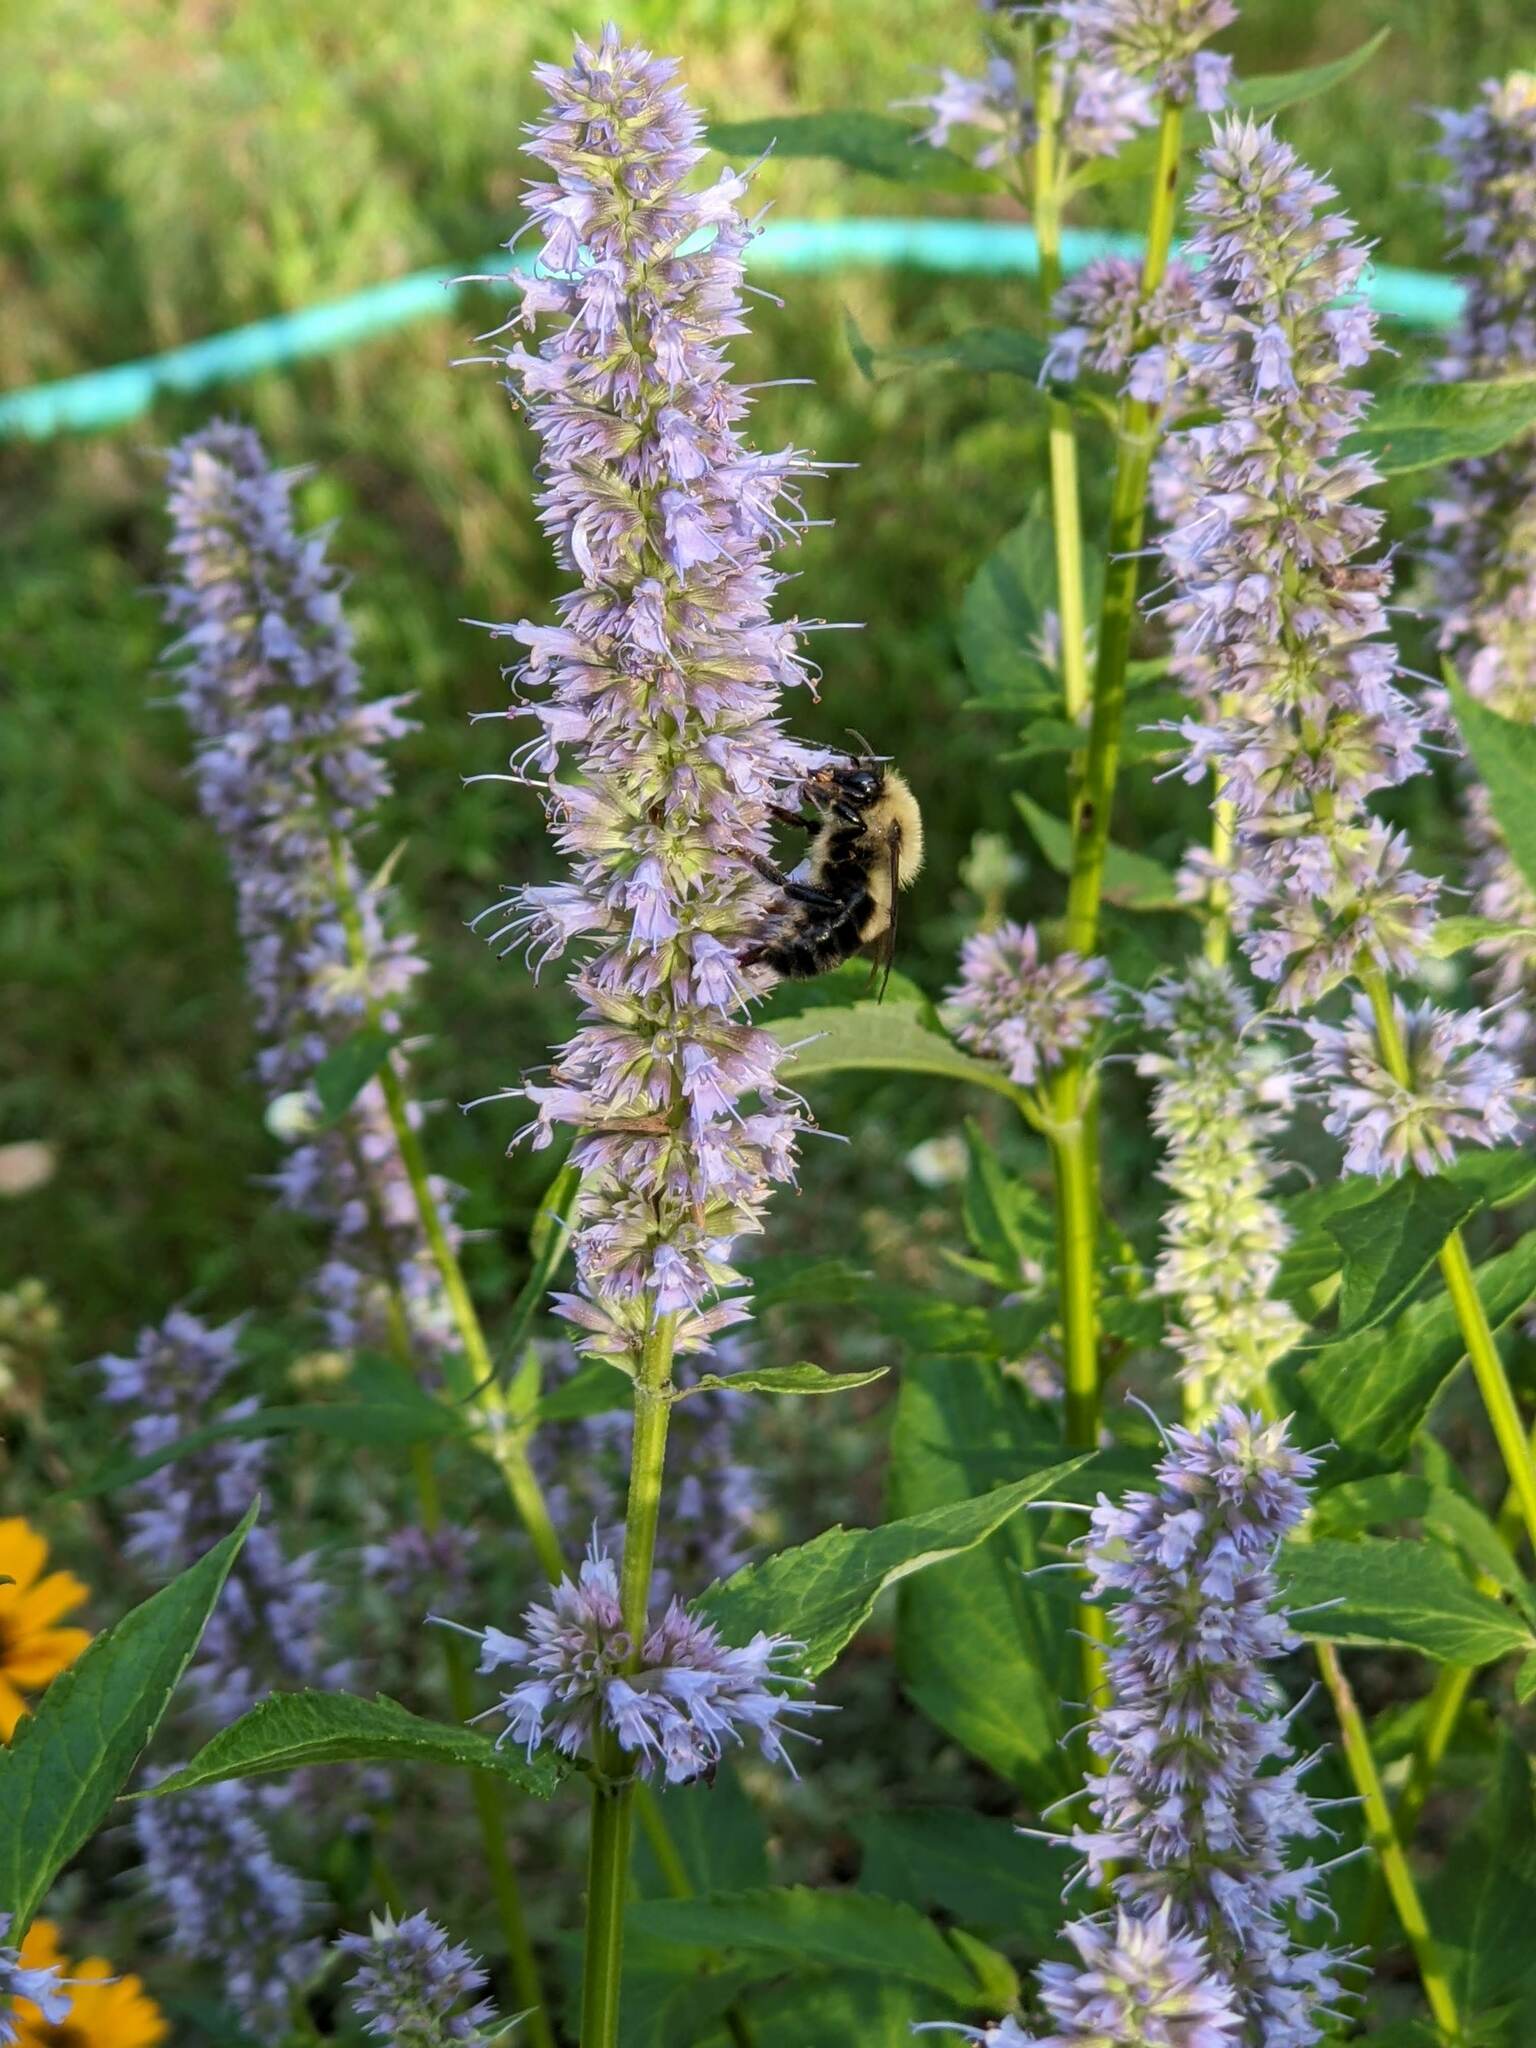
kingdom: Animalia
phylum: Arthropoda
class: Insecta
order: Hymenoptera
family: Apidae
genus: Bombus
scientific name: Bombus bimaculatus
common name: Two-spotted bumble bee
